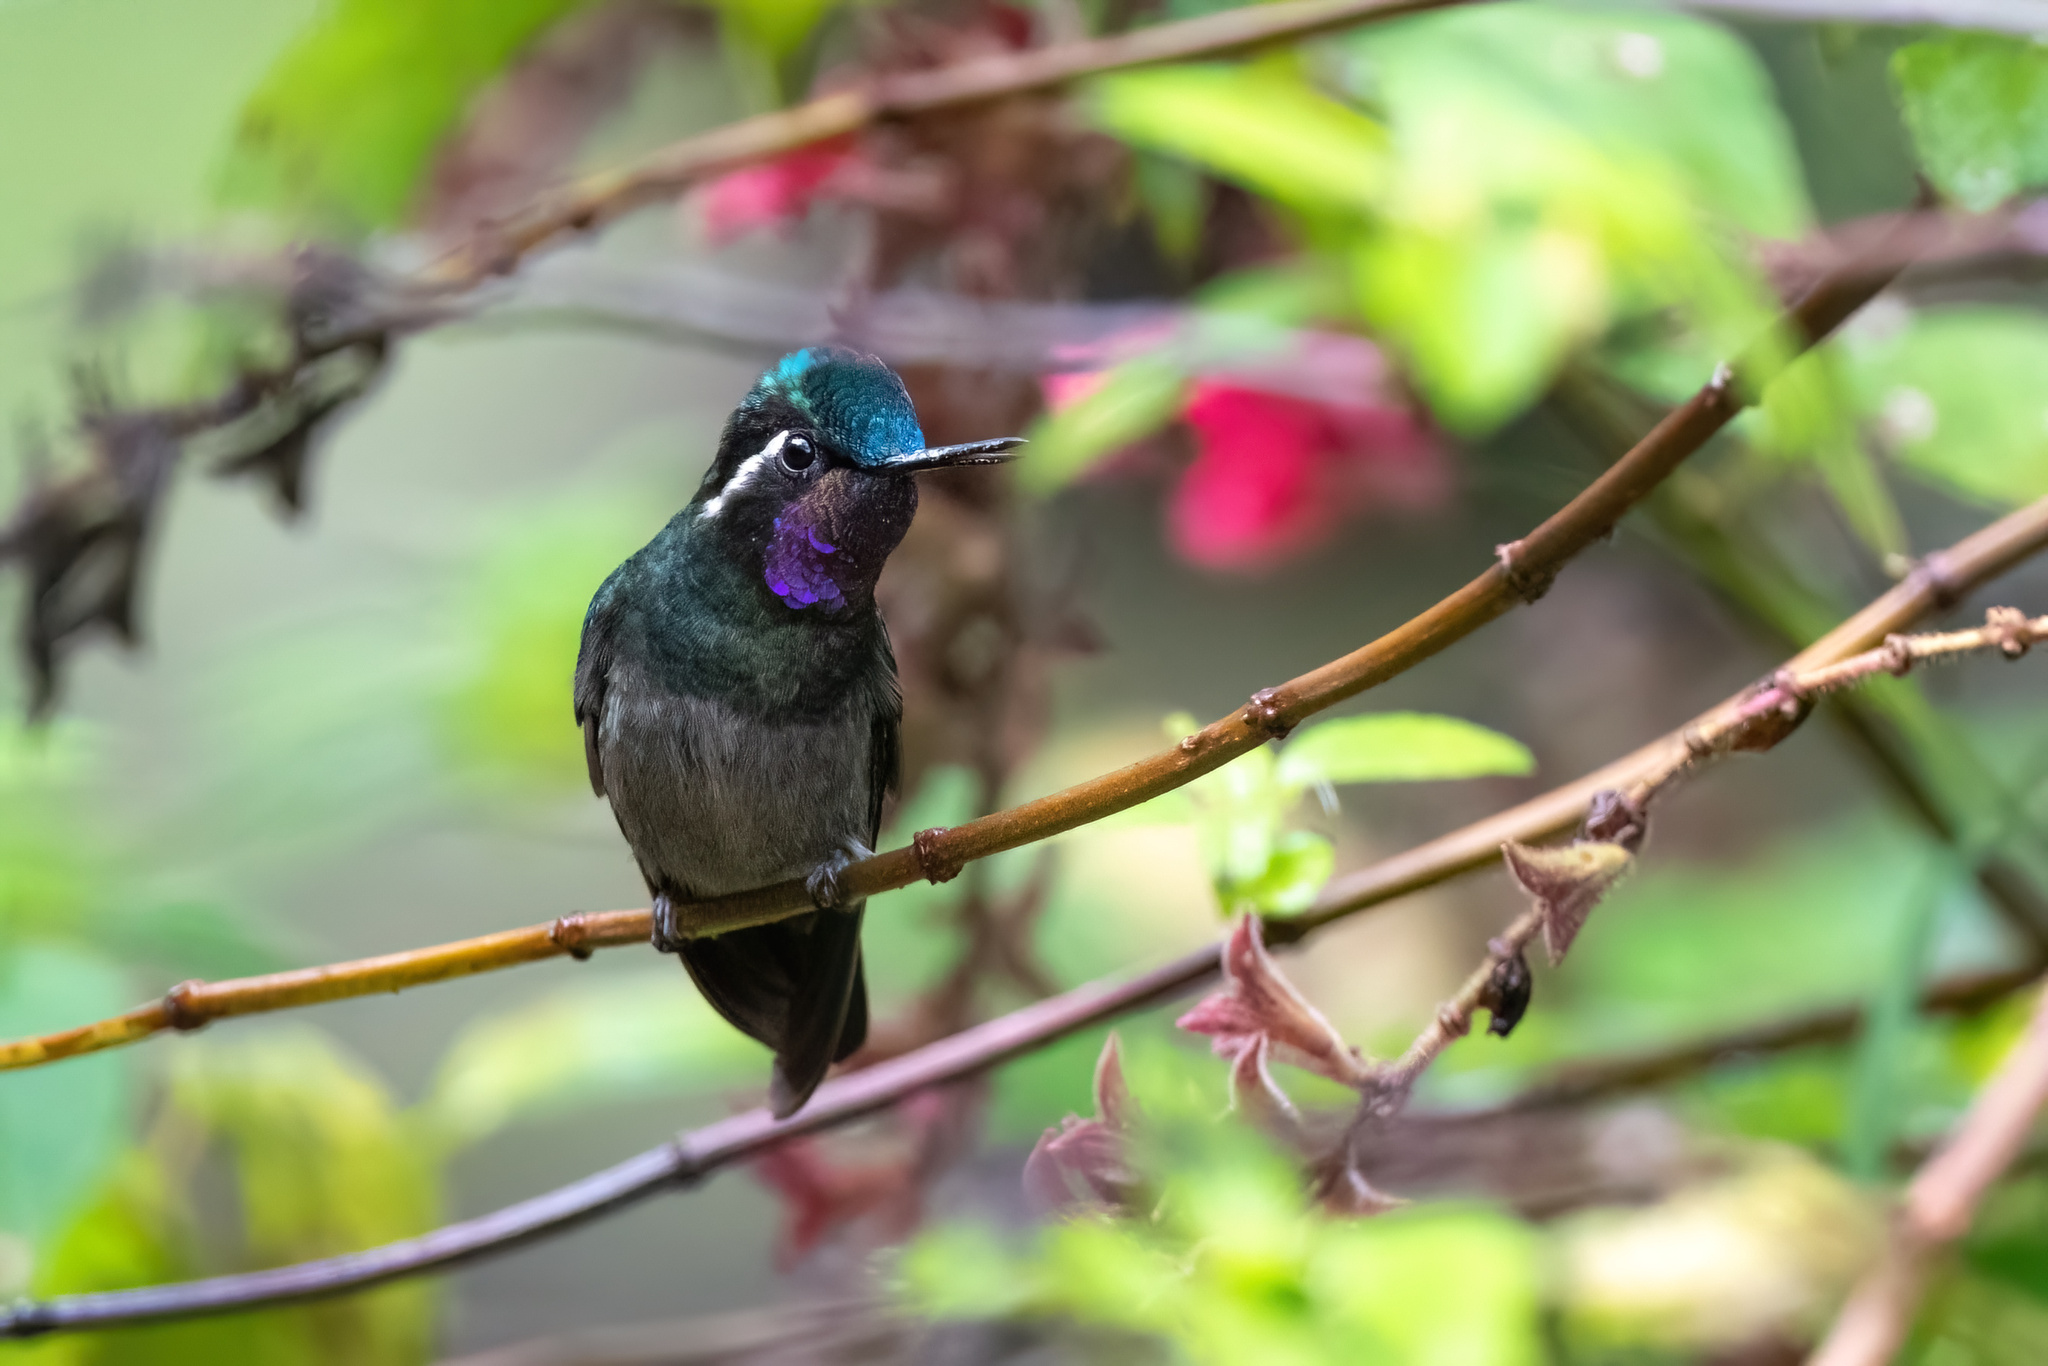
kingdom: Animalia
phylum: Chordata
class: Aves
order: Apodiformes
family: Trochilidae
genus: Lampornis
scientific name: Lampornis calolaemus
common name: Purple-throated mountain-gem
